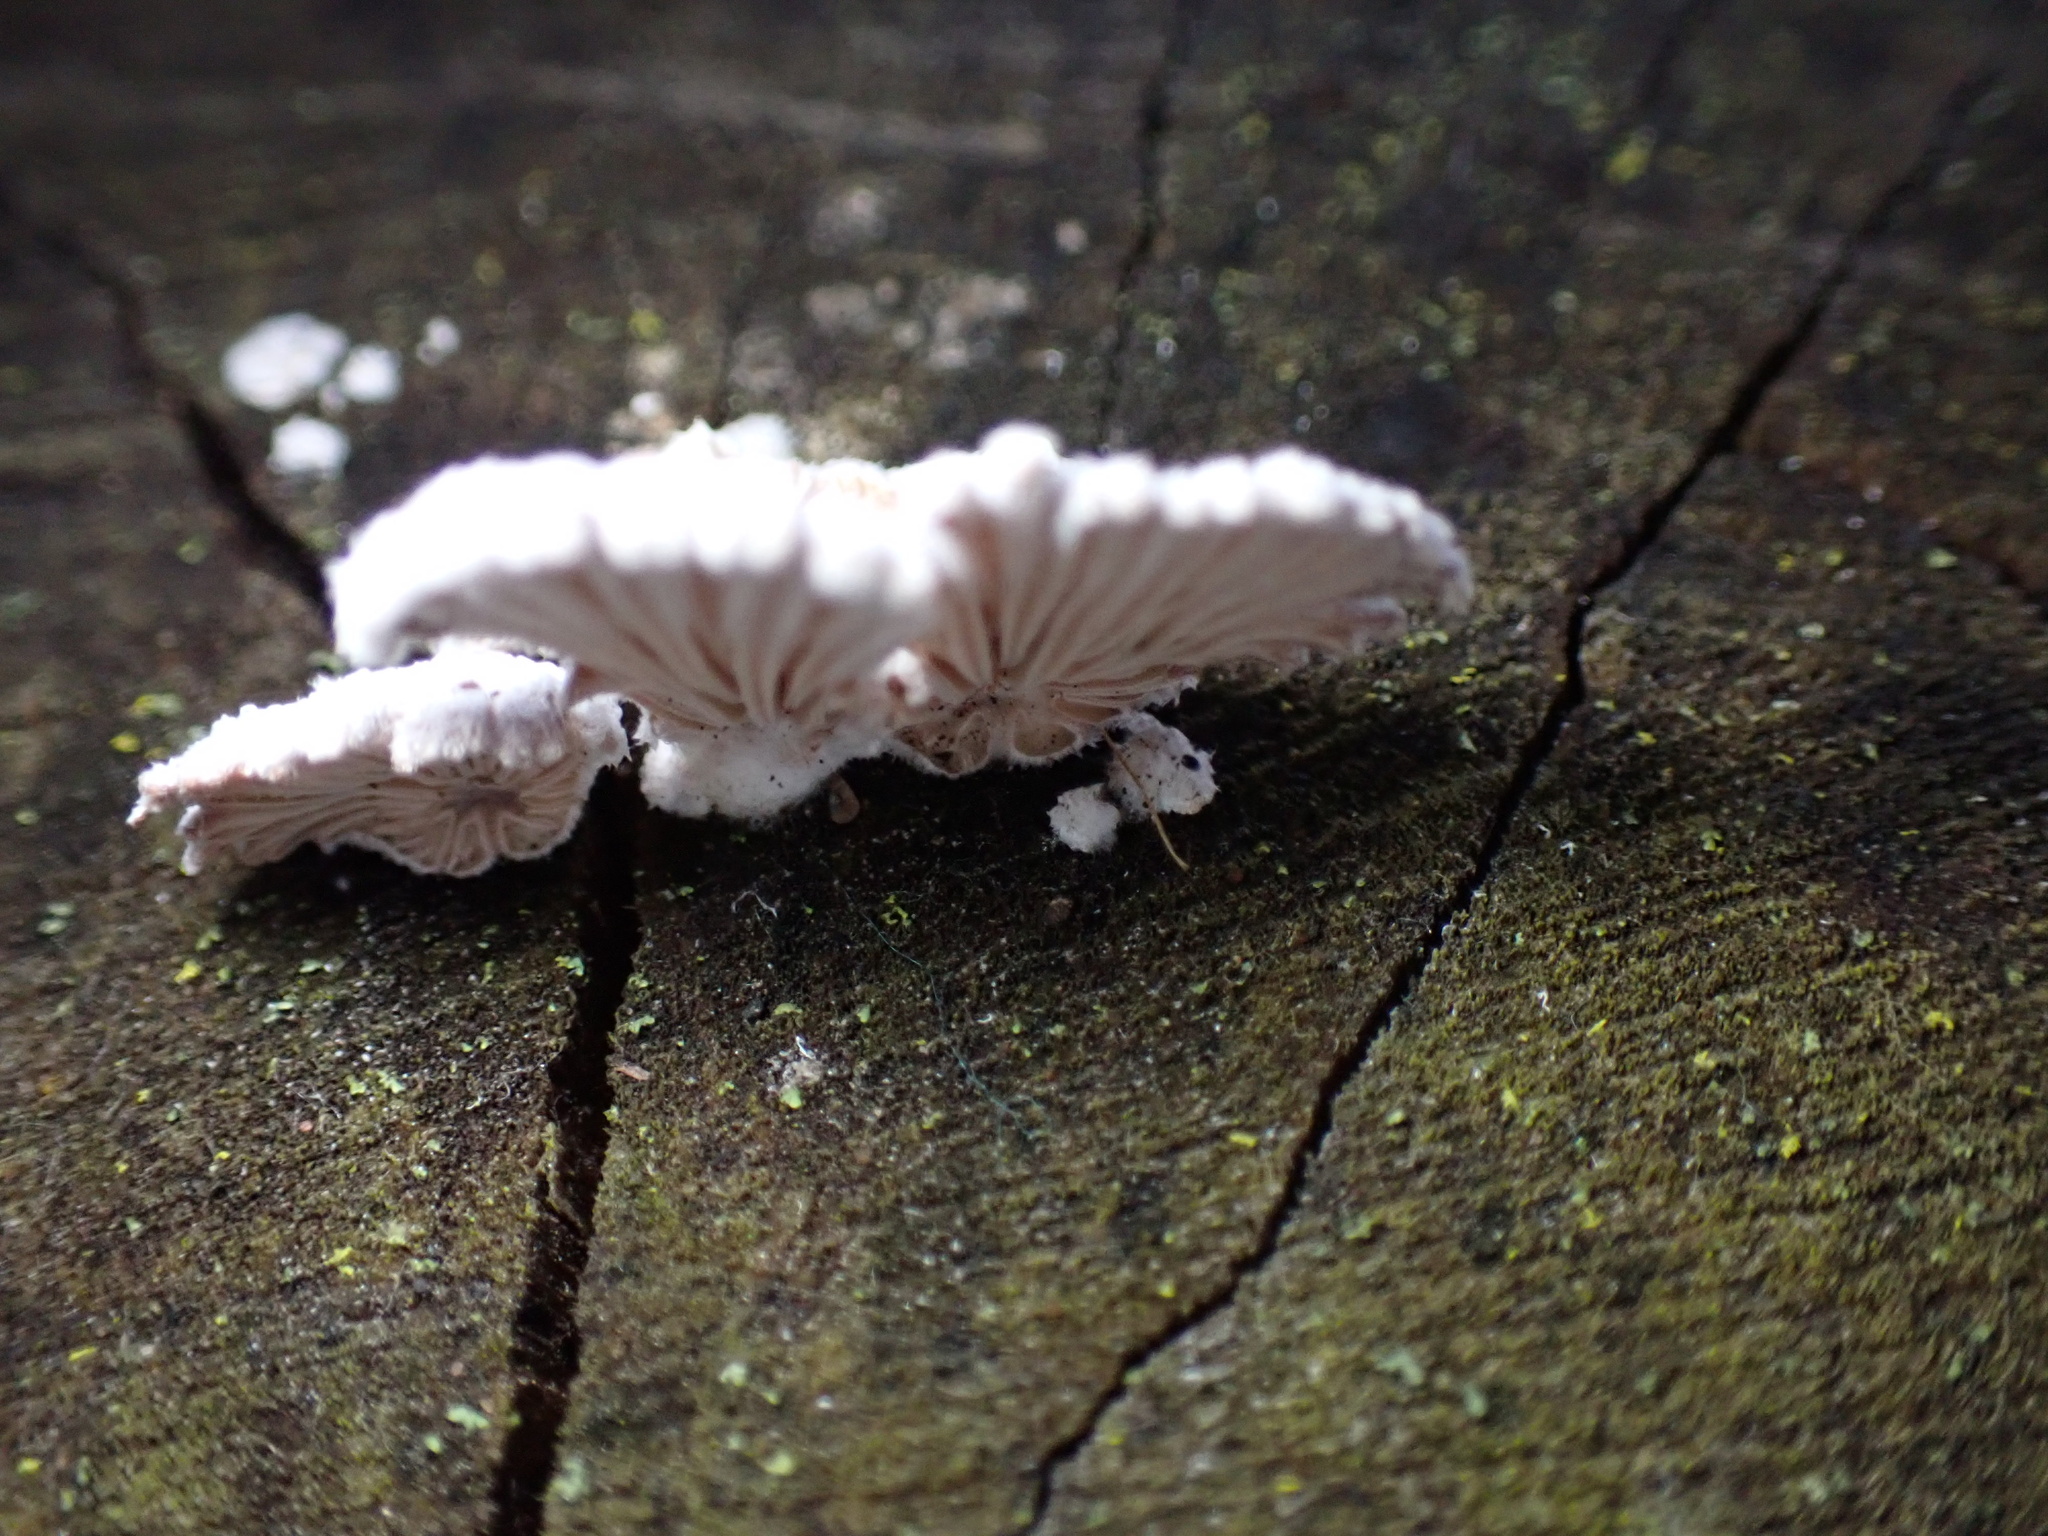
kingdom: Fungi
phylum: Basidiomycota
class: Agaricomycetes
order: Agaricales
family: Schizophyllaceae
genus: Schizophyllum
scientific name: Schizophyllum commune
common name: Common porecrust
